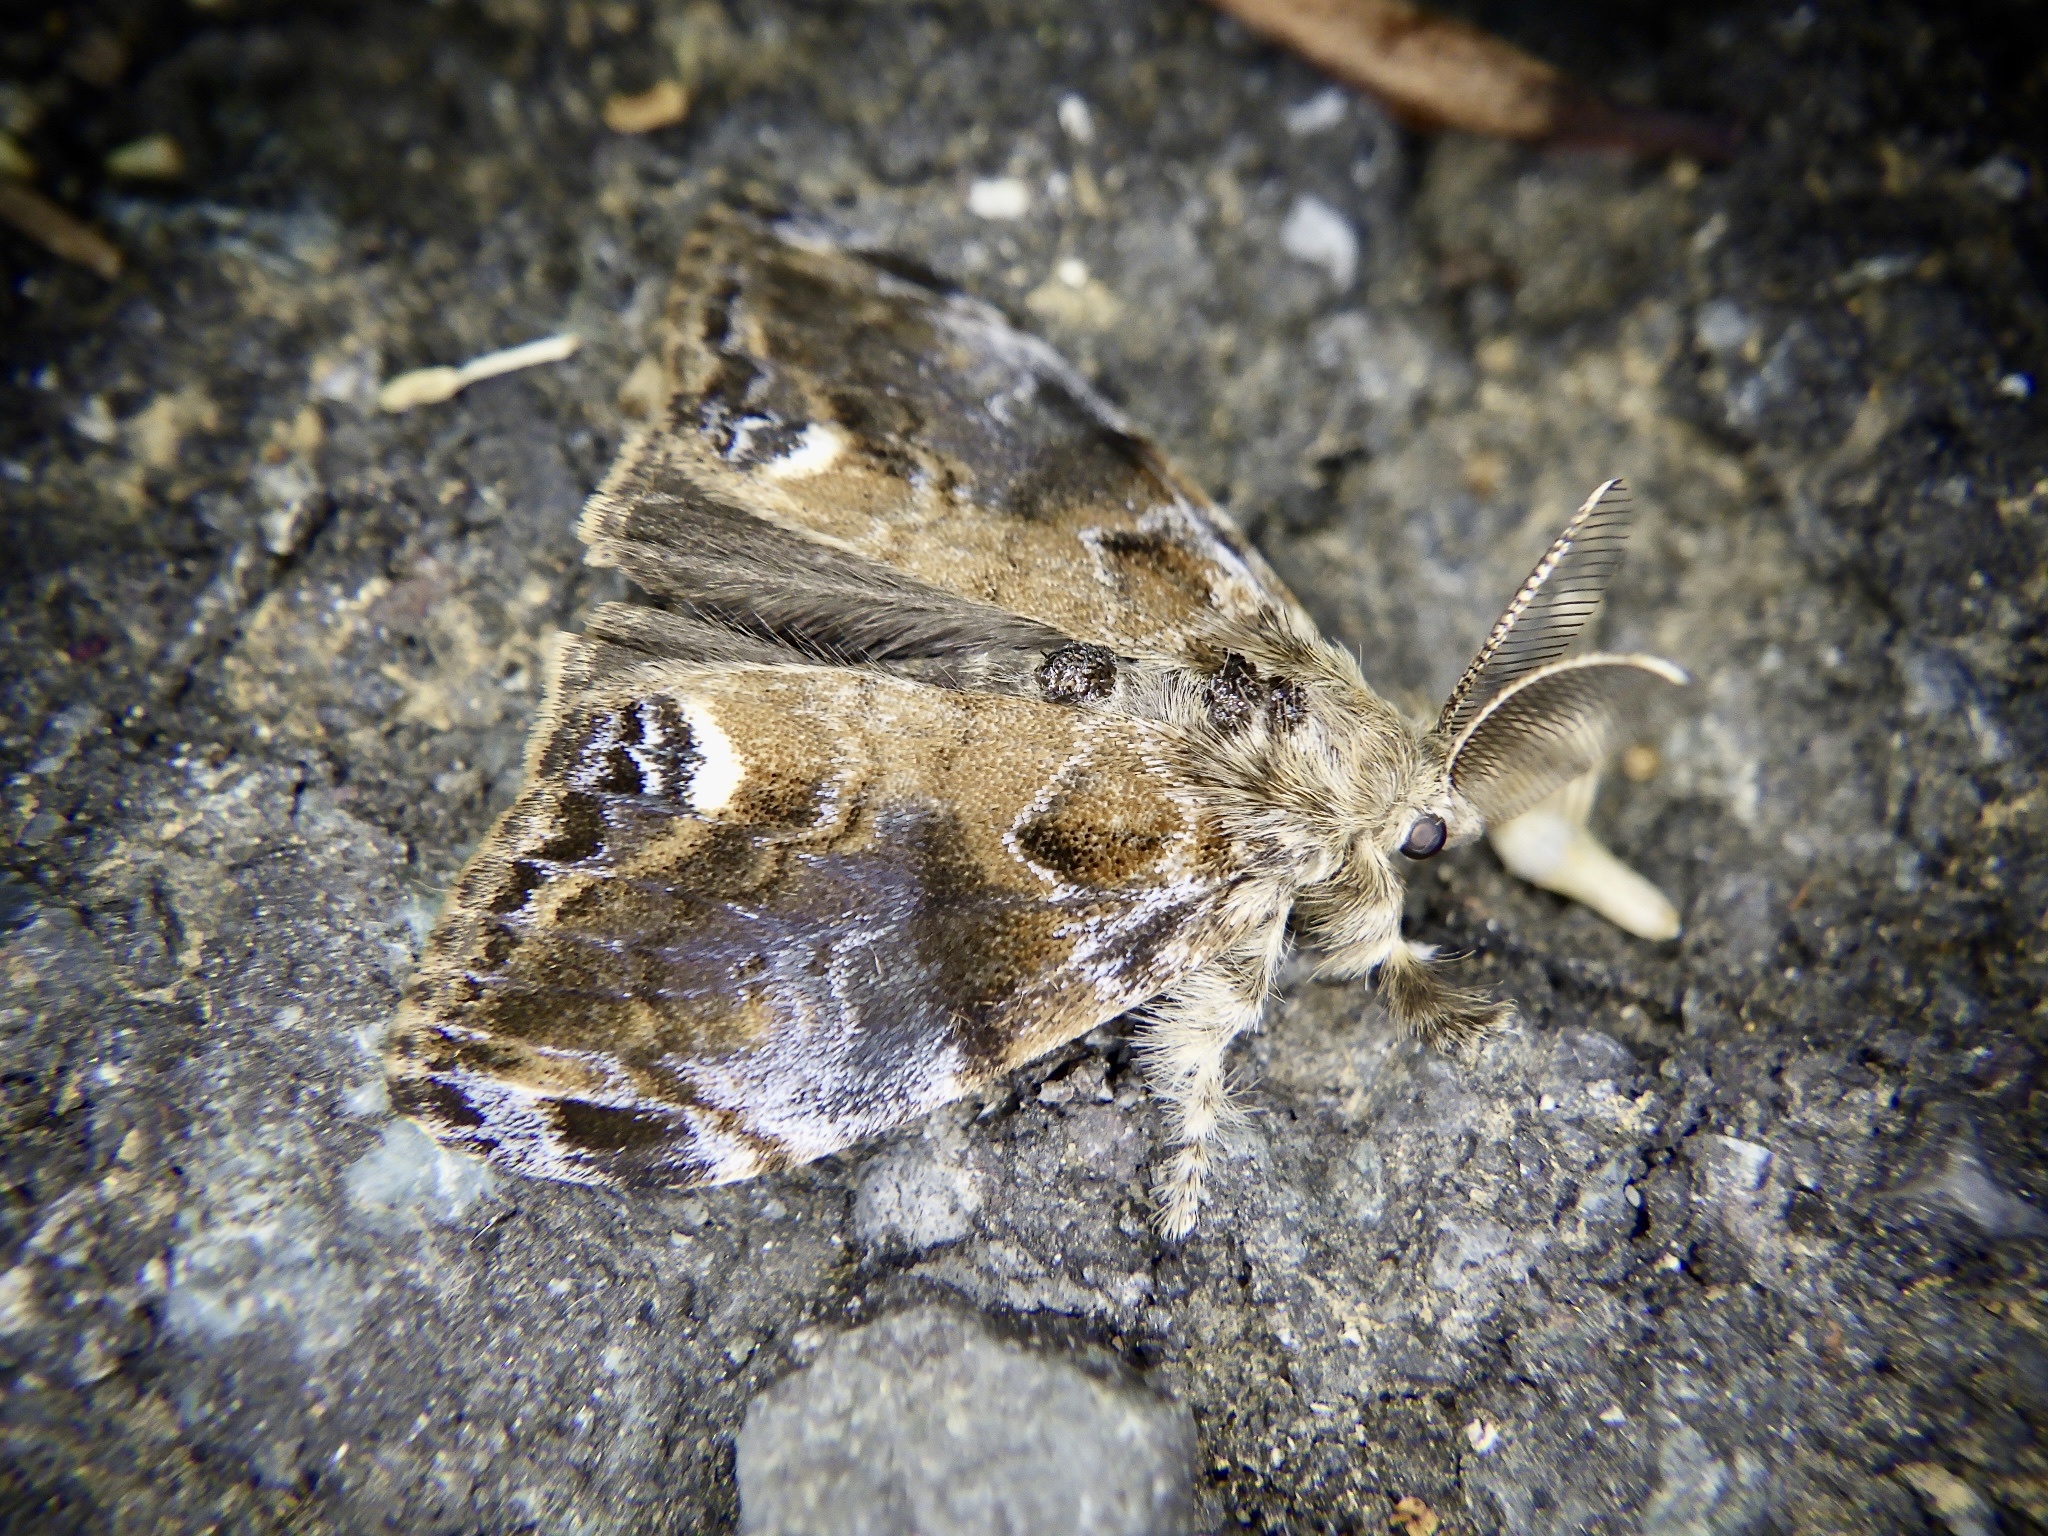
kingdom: Animalia
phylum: Arthropoda
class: Insecta
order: Lepidoptera
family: Erebidae
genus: Orgyia
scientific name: Orgyia thyellina
